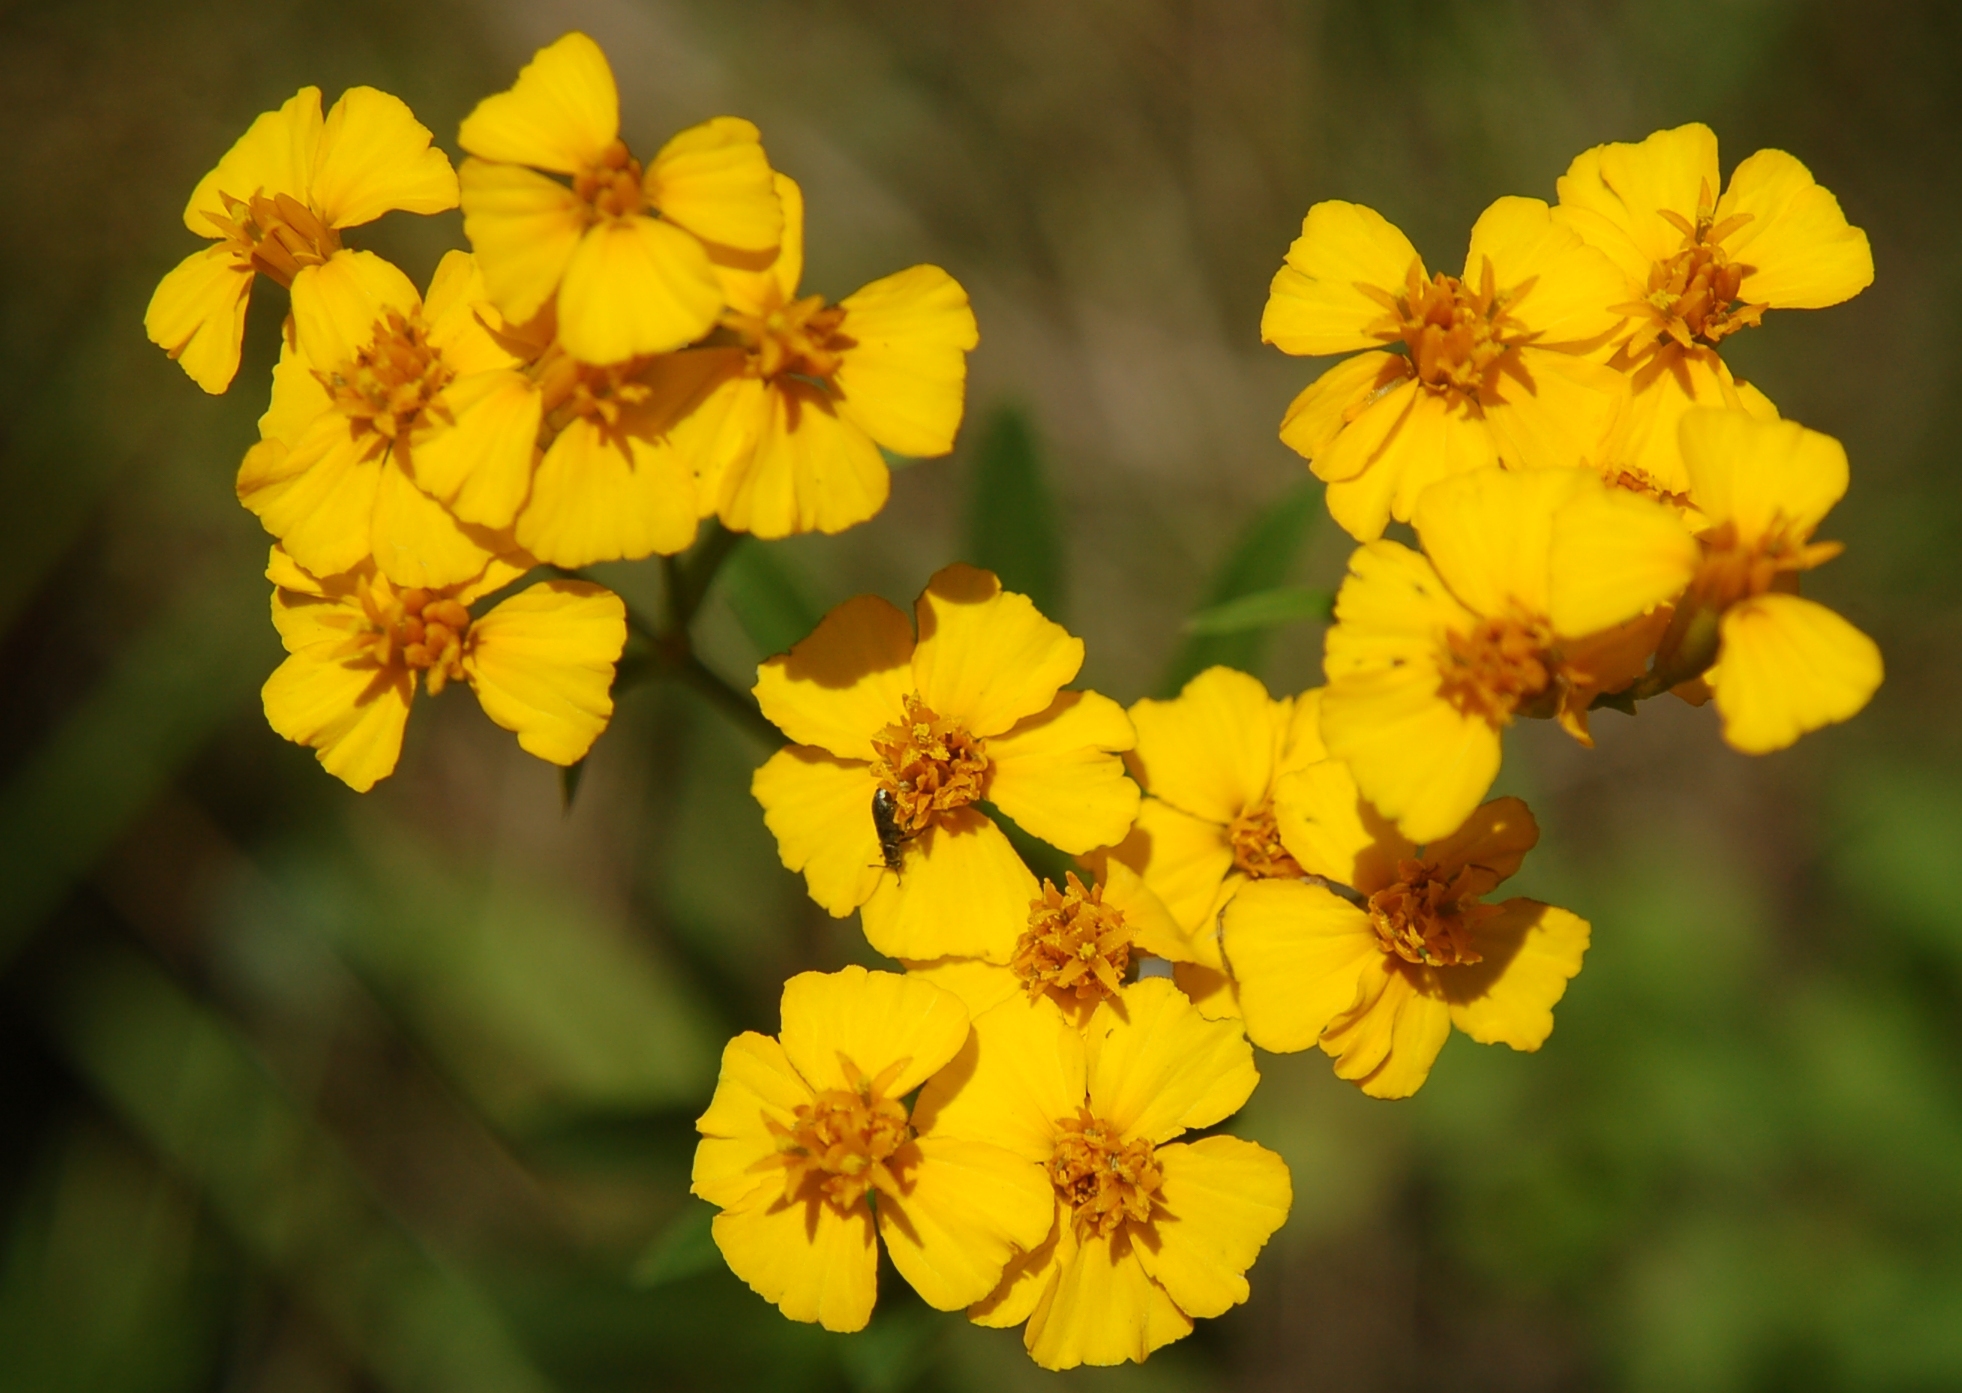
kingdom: Plantae
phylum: Tracheophyta
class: Magnoliopsida
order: Asterales
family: Asteraceae
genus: Tagetes
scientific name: Tagetes lucida
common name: Sweetscented marigold
